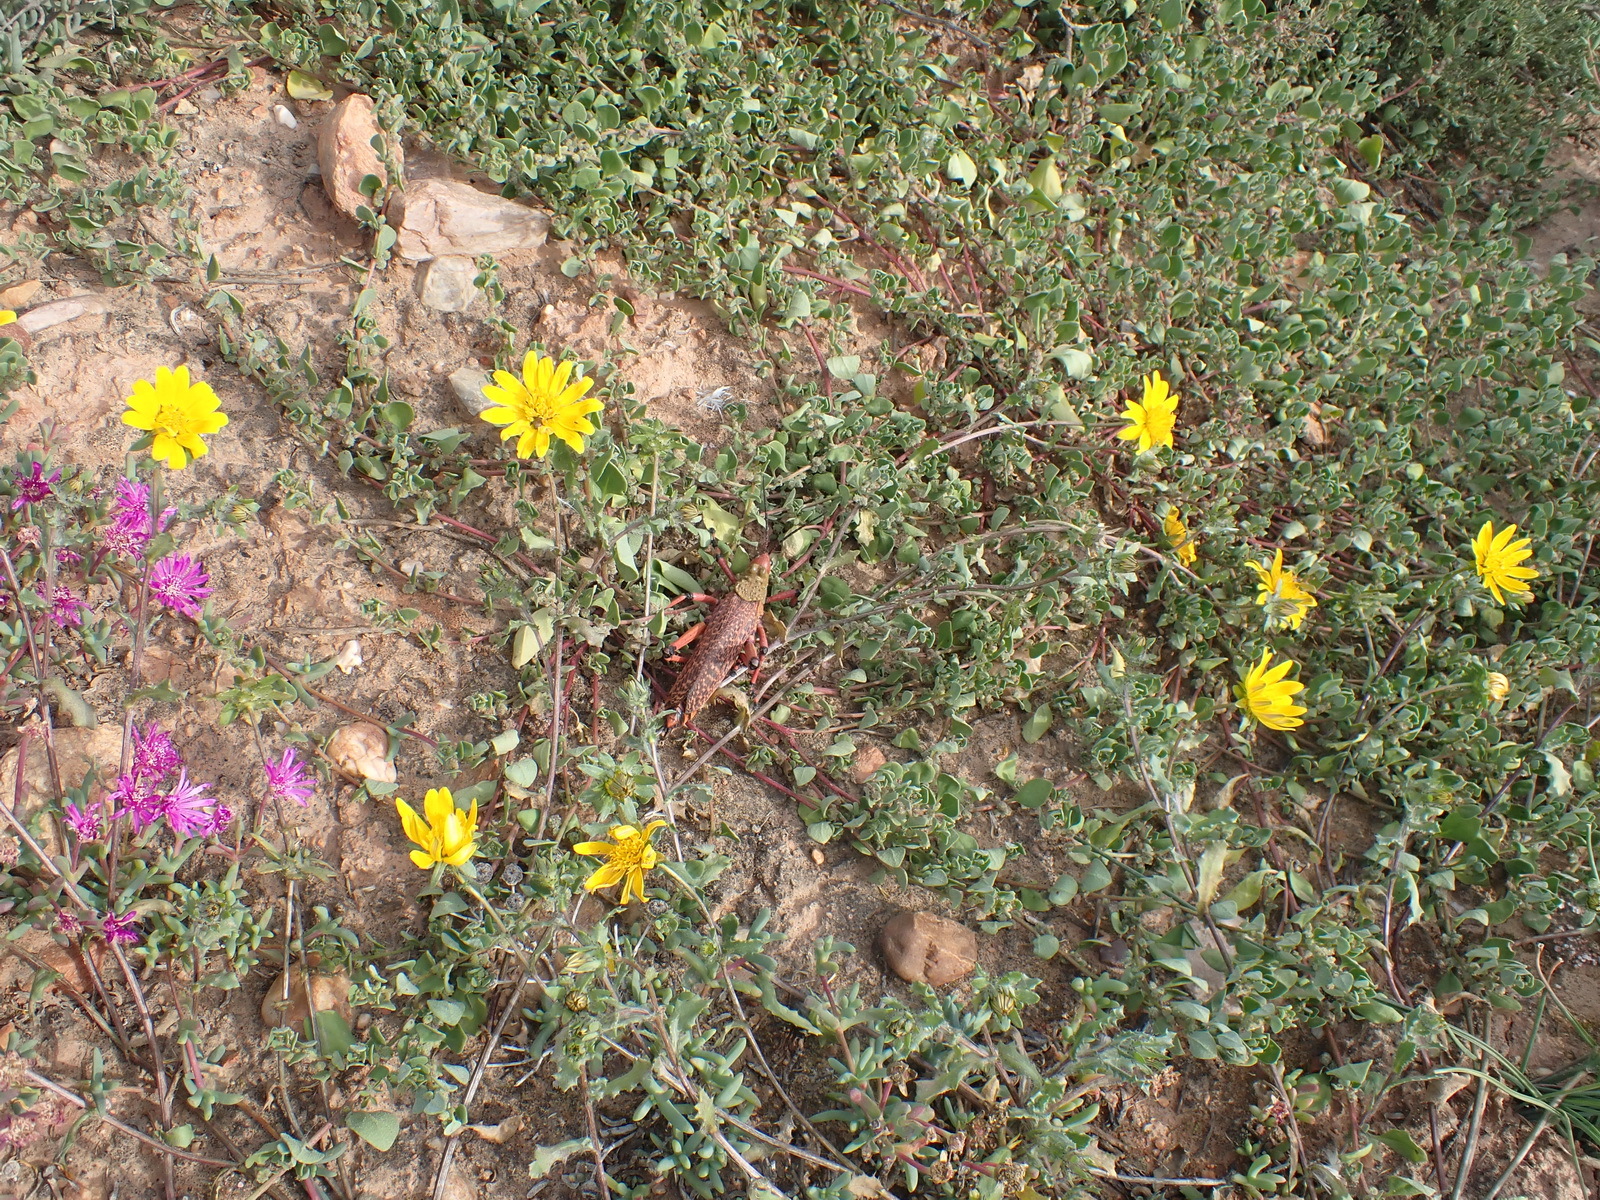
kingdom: Plantae
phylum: Tracheophyta
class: Magnoliopsida
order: Asterales
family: Asteraceae
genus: Cuspidia
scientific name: Cuspidia cernua
